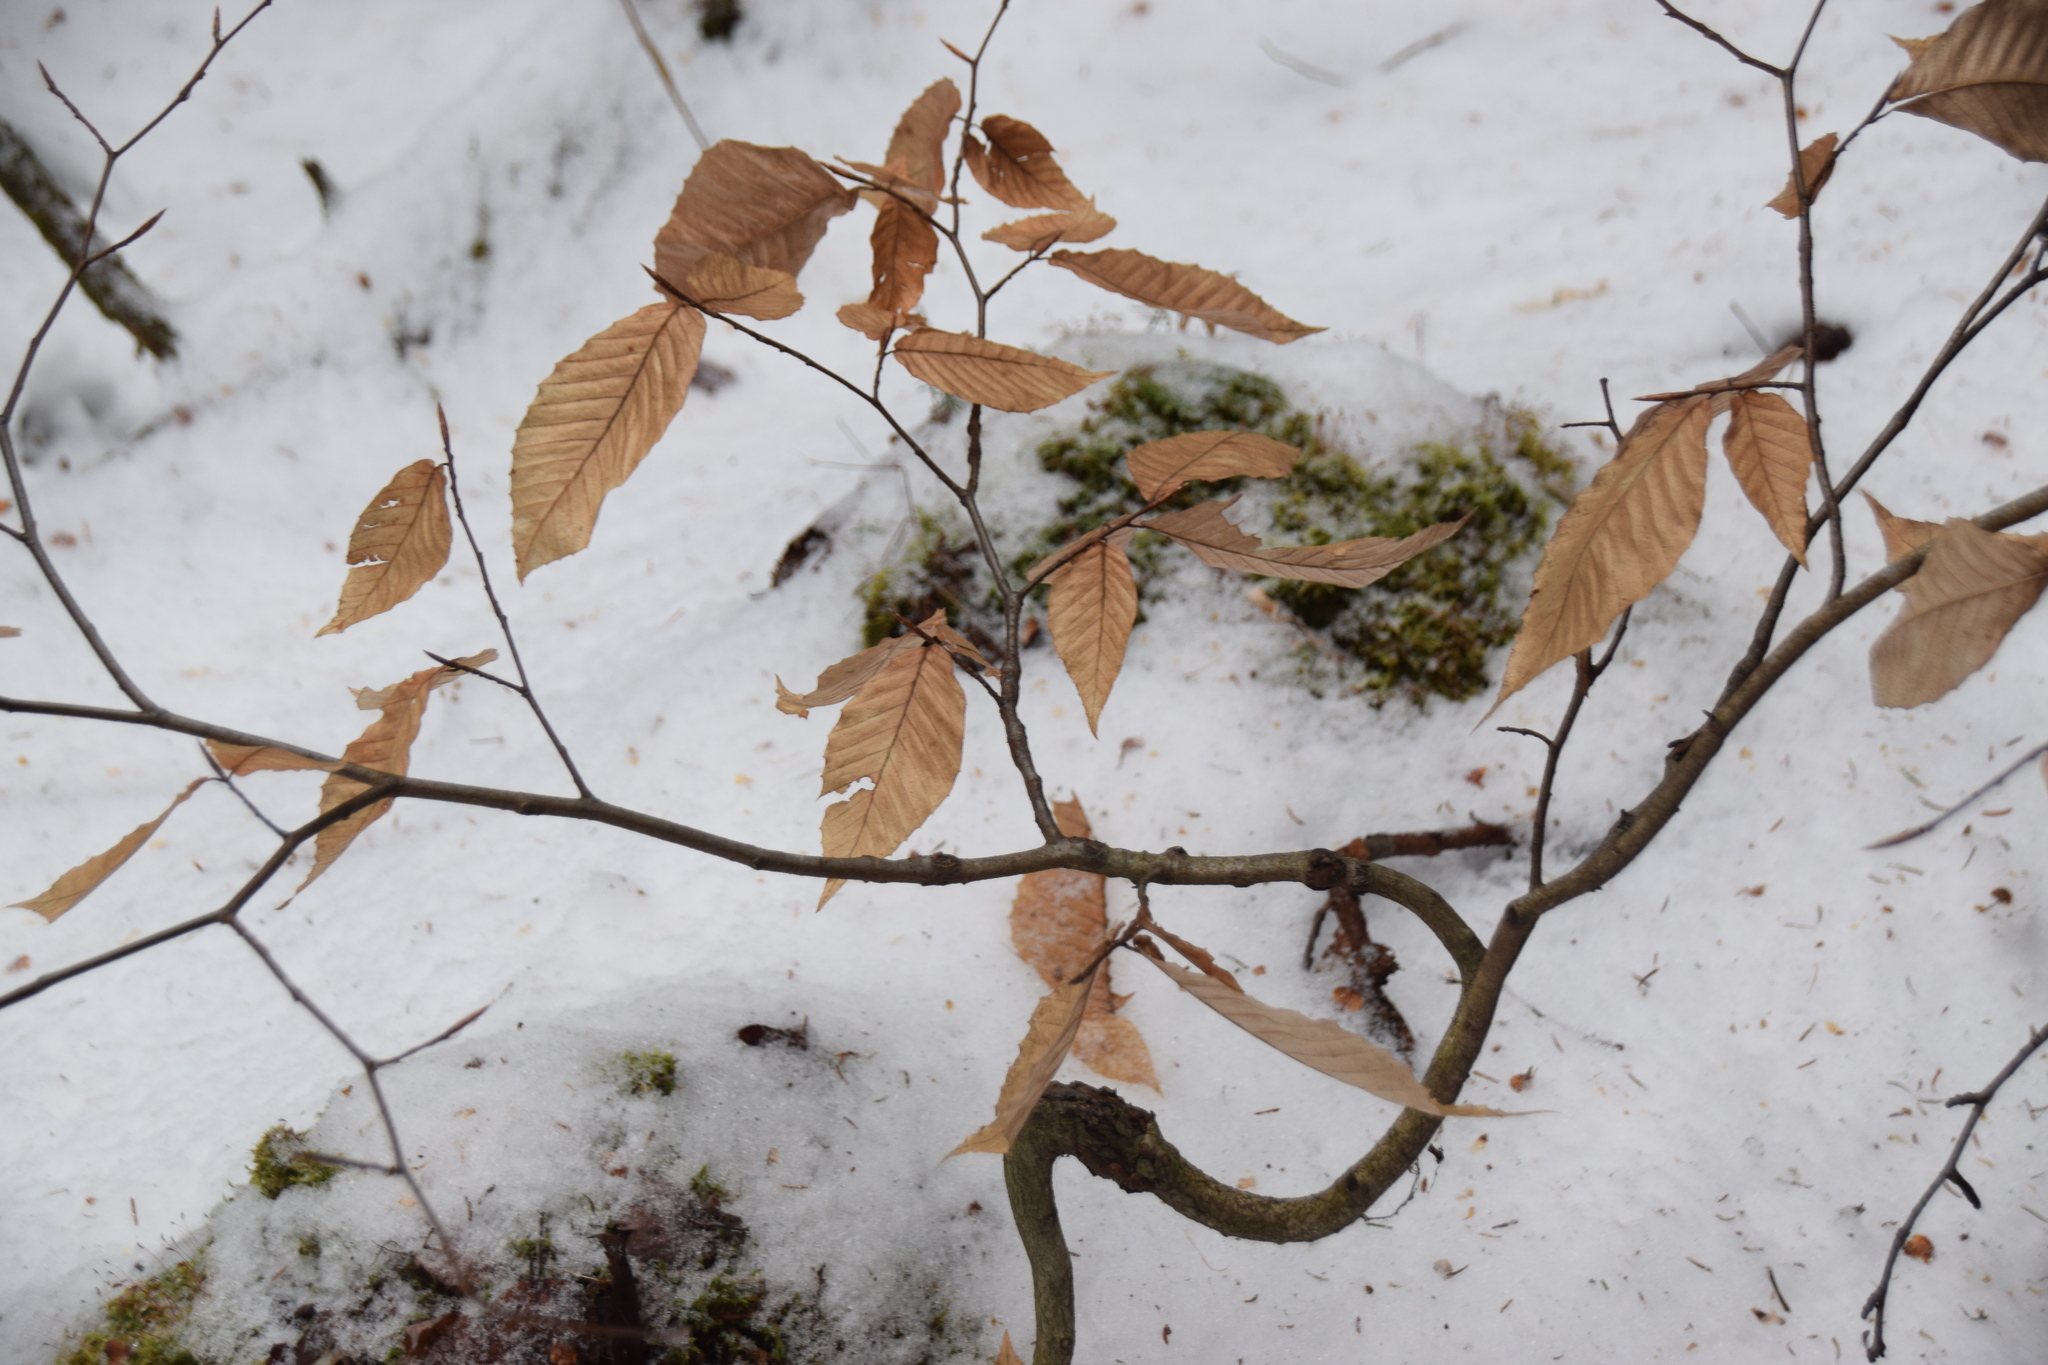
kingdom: Plantae
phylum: Tracheophyta
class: Magnoliopsida
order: Fagales
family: Fagaceae
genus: Fagus
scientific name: Fagus grandifolia
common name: American beech
